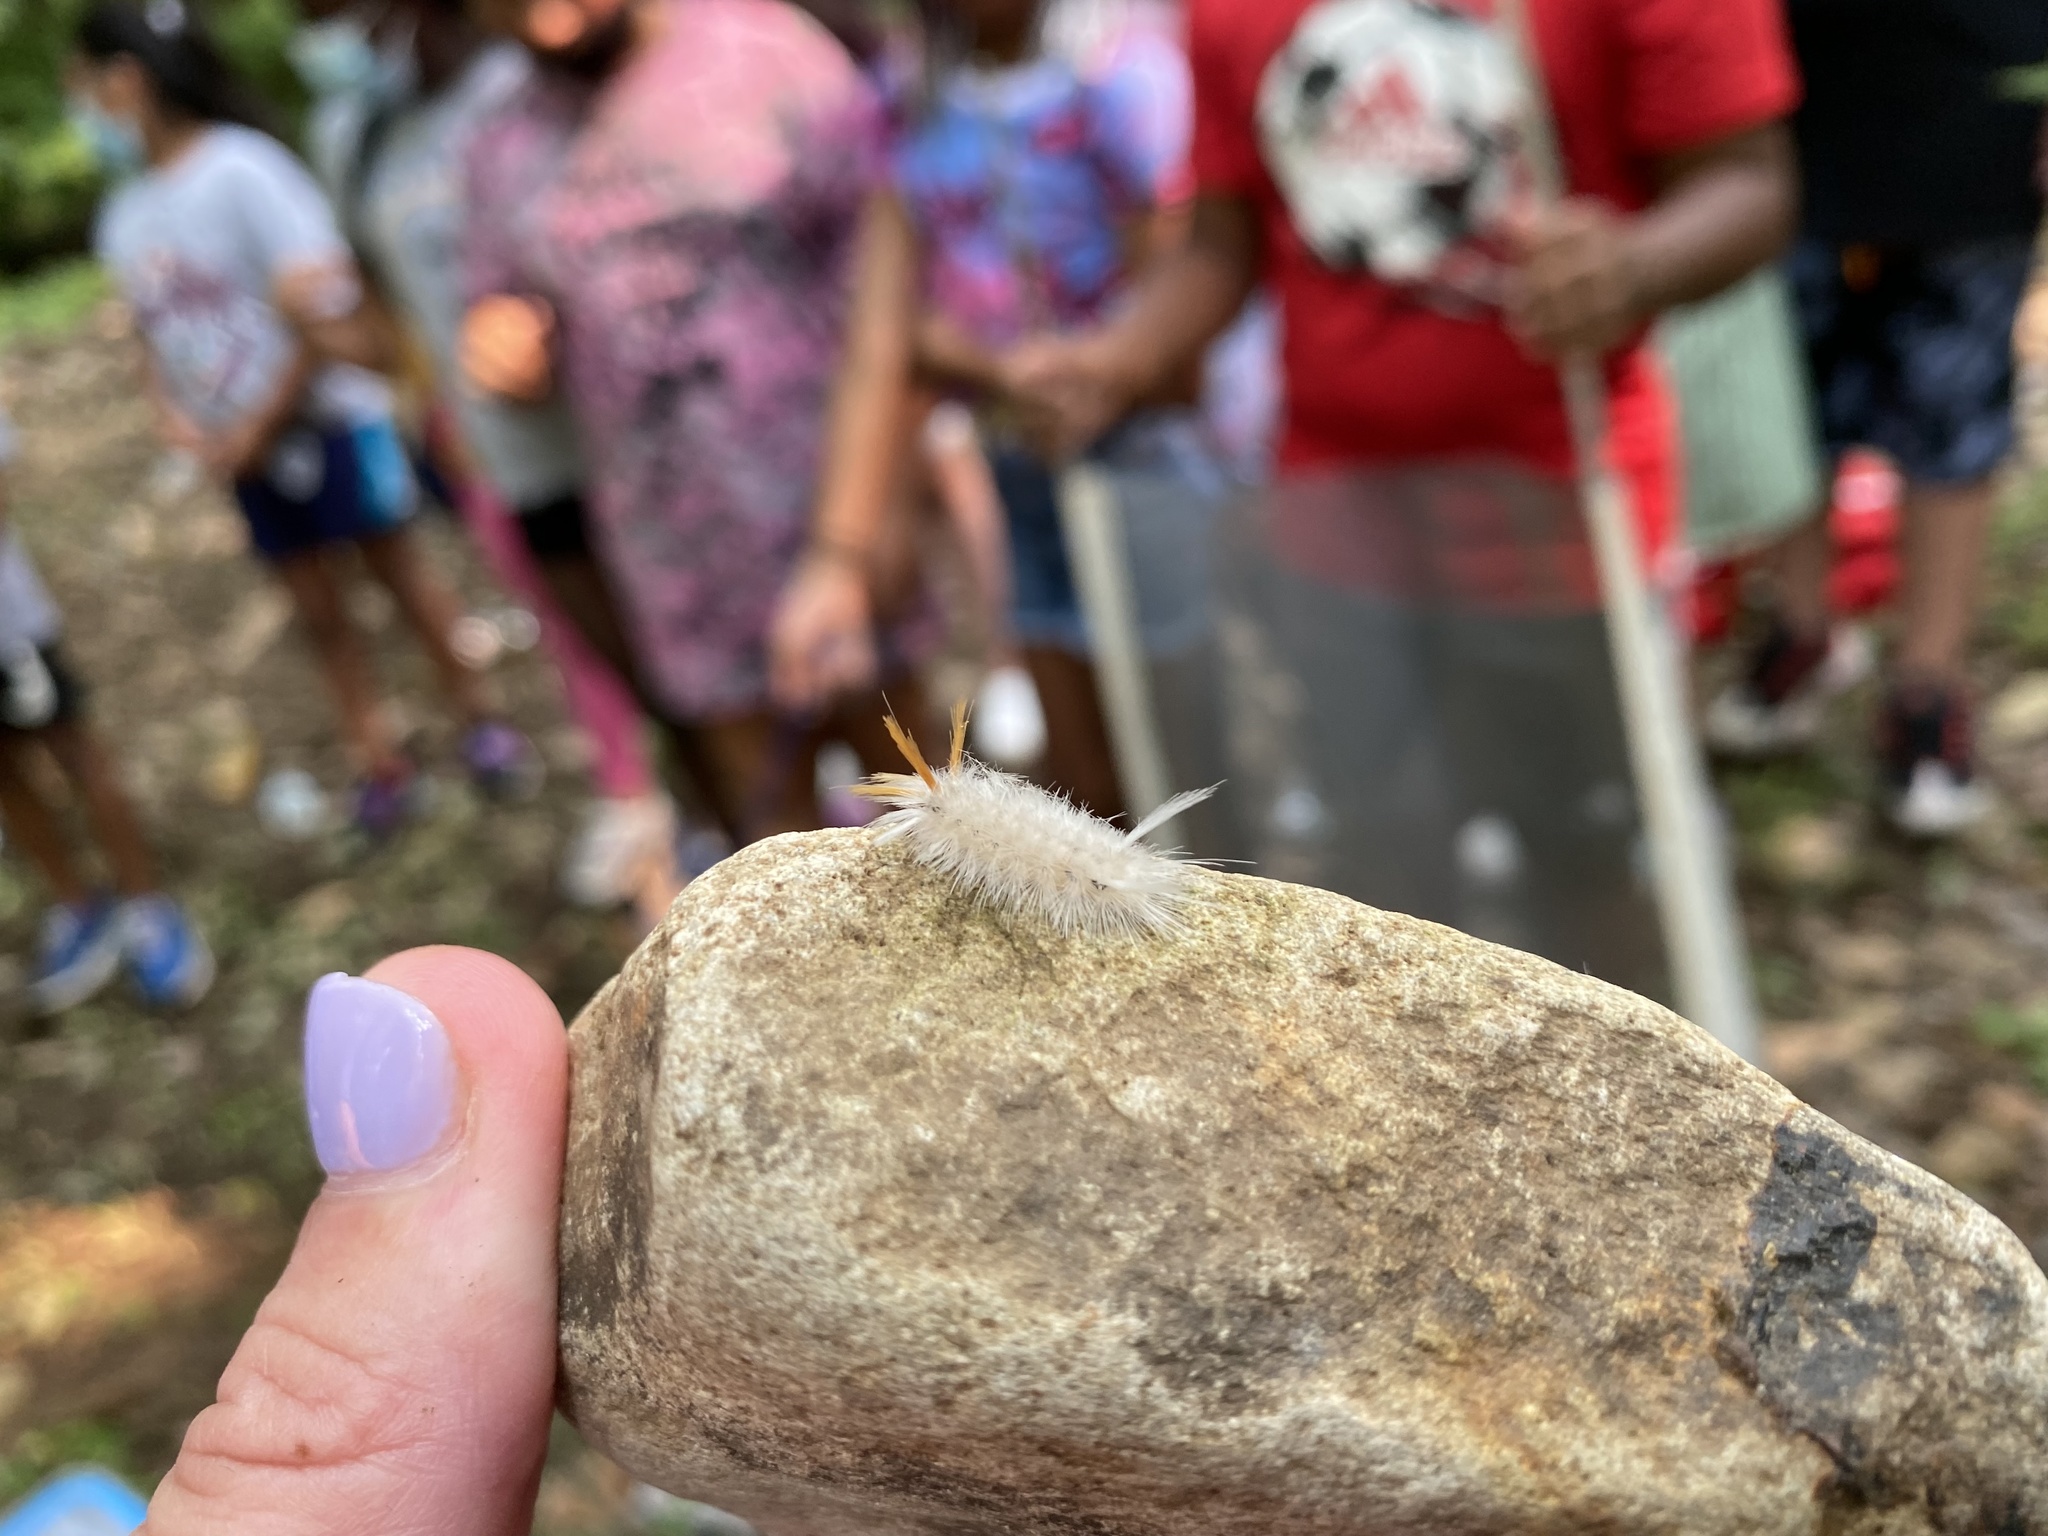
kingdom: Animalia
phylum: Arthropoda
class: Insecta
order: Lepidoptera
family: Erebidae
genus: Halysidota
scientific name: Halysidota harrisii
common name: Sycamore tussock moth
